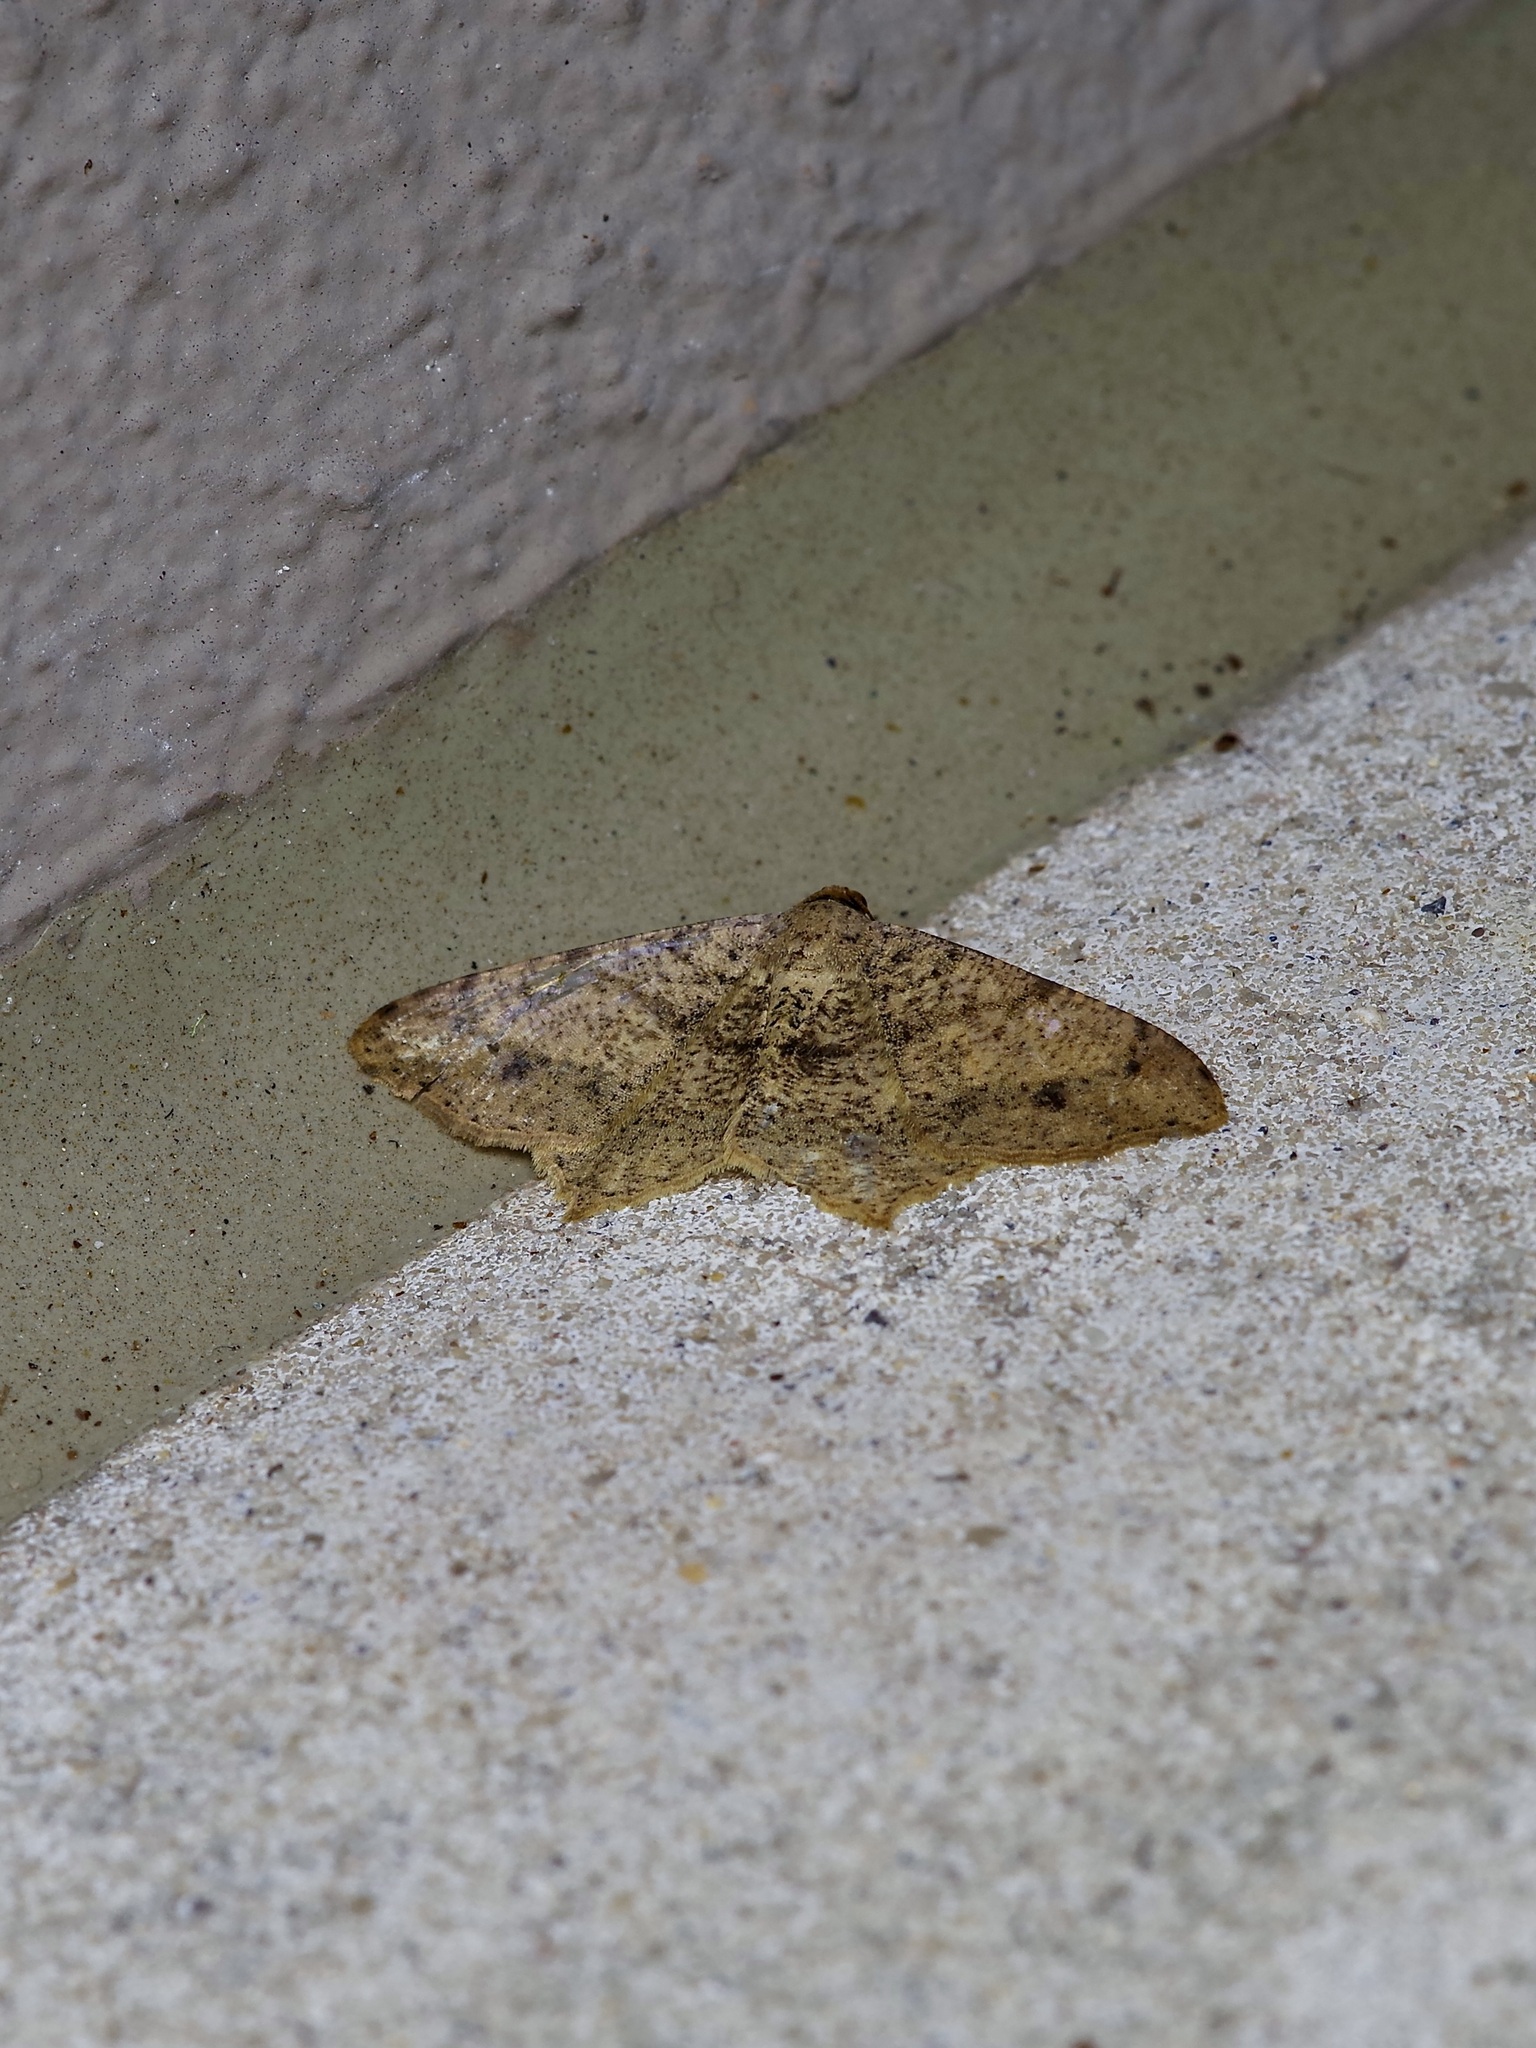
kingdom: Animalia
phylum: Arthropoda
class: Insecta
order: Lepidoptera
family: Geometridae
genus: Macaria
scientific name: Macaria abydata
